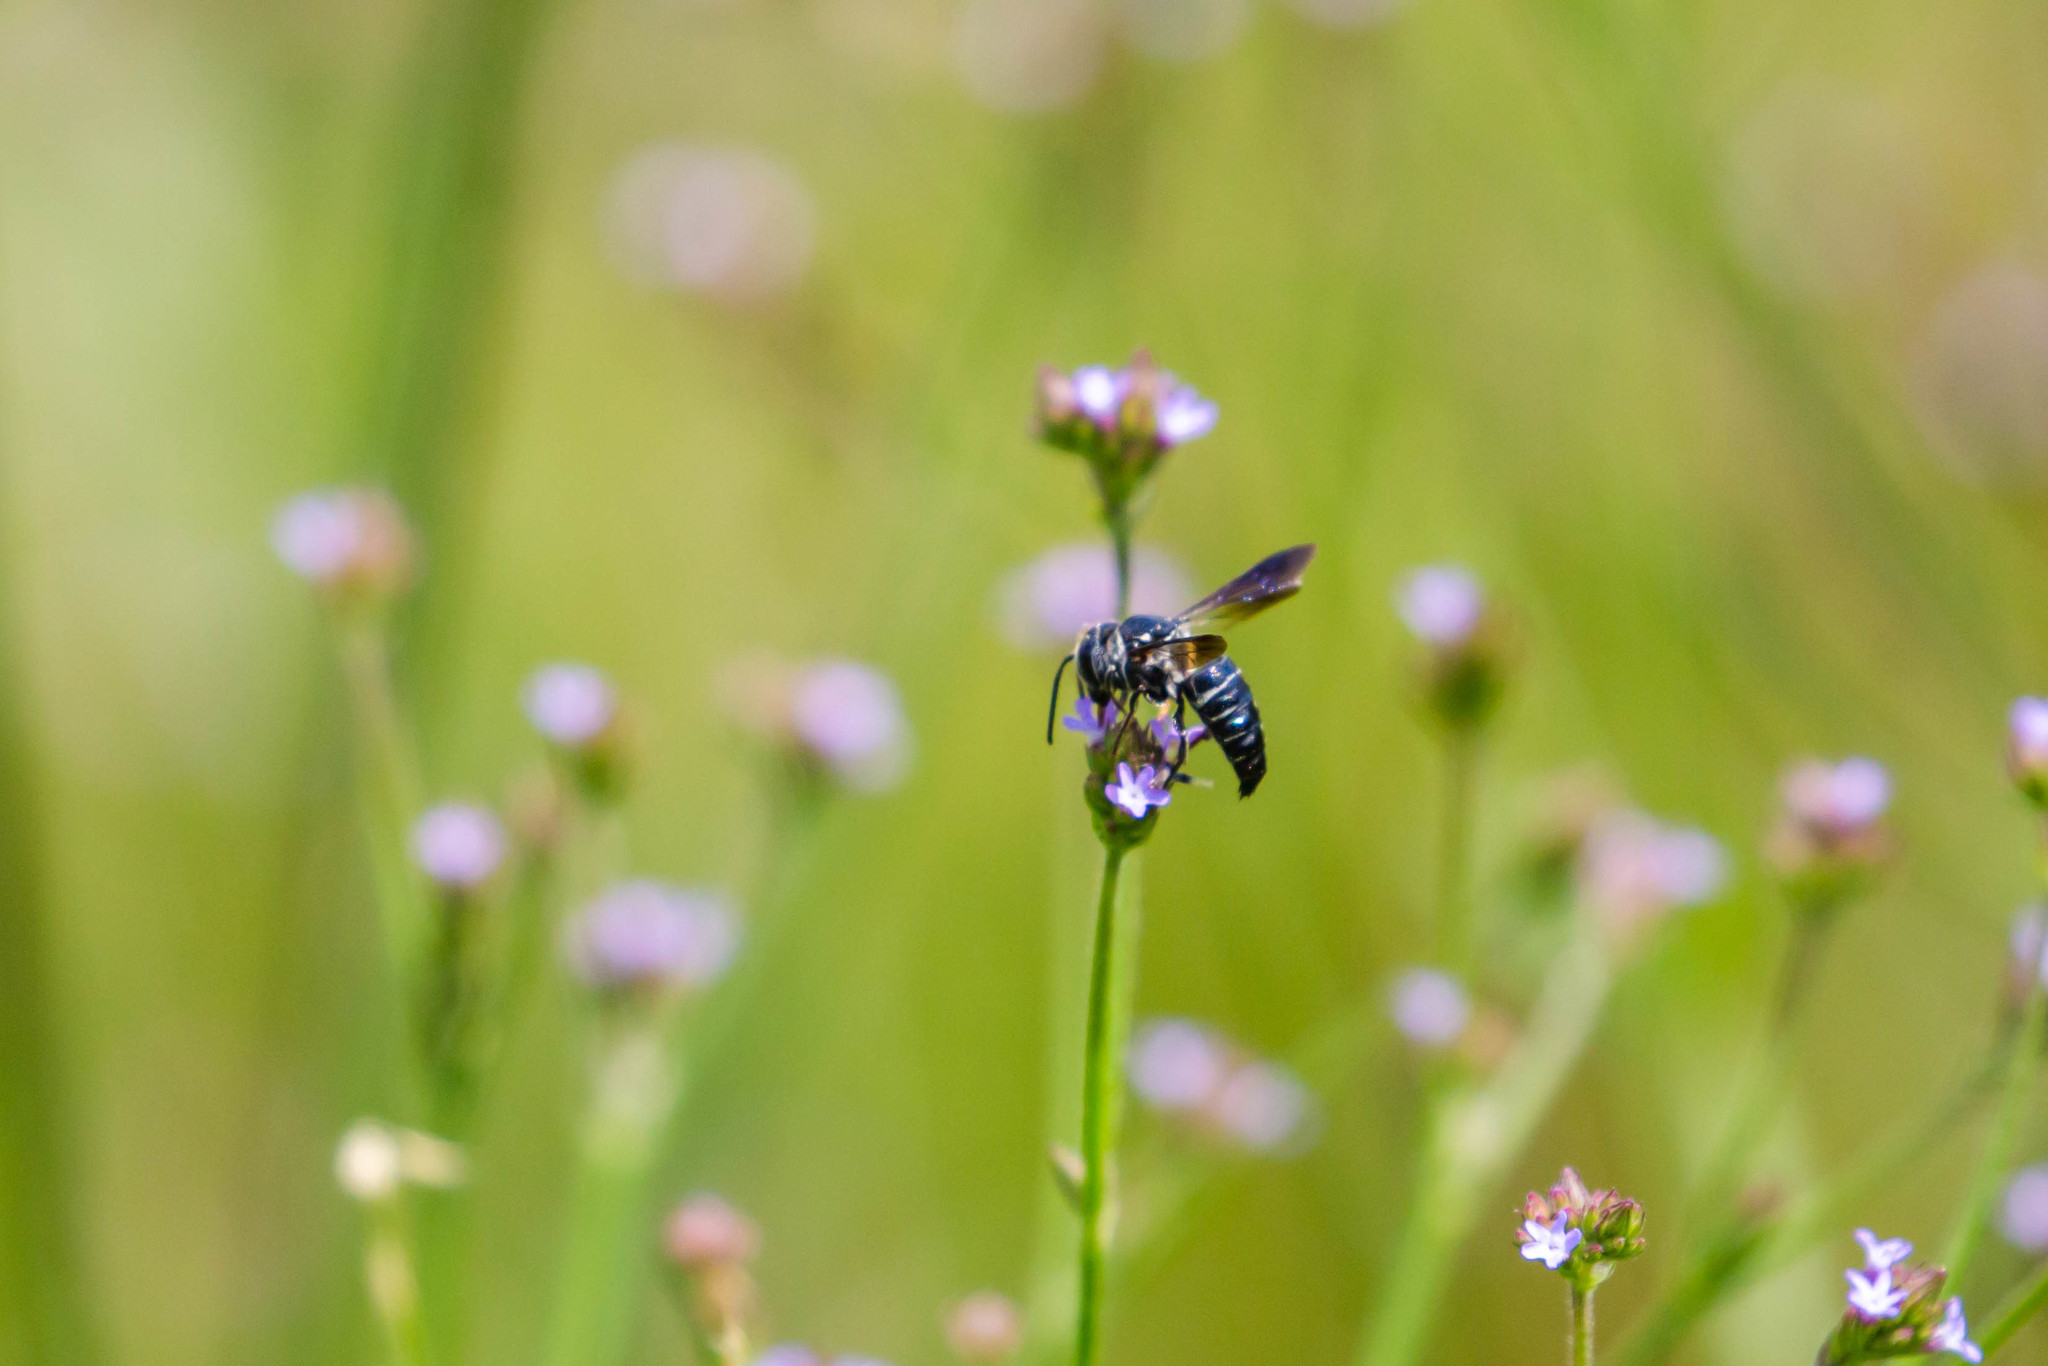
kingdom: Animalia
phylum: Arthropoda
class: Insecta
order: Hymenoptera
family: Megachilidae
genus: Coelioxys
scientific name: Coelioxys dolichos
